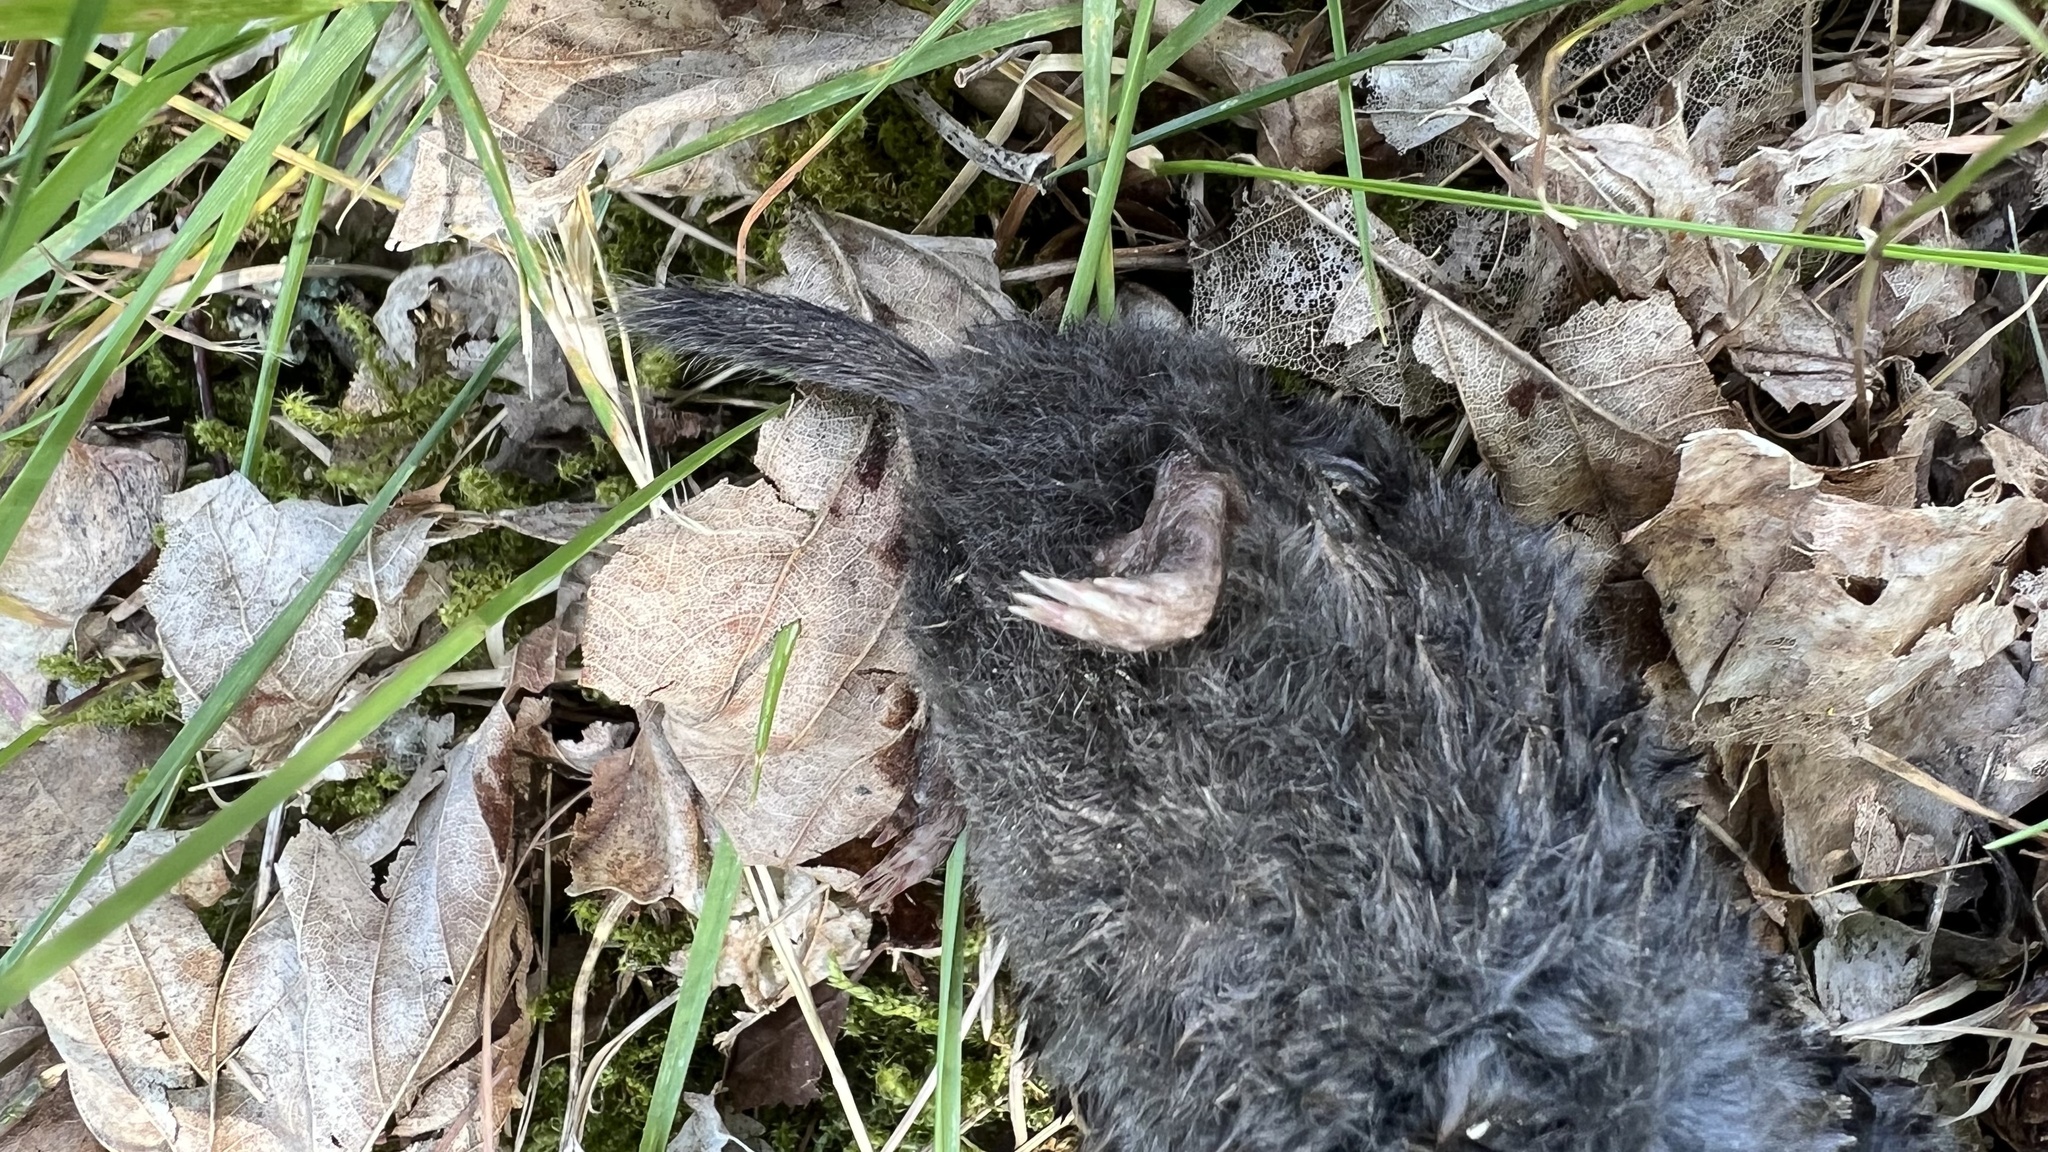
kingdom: Animalia
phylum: Chordata
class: Mammalia
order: Soricomorpha
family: Talpidae
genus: Talpa
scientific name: Talpa europaea
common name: European mole
